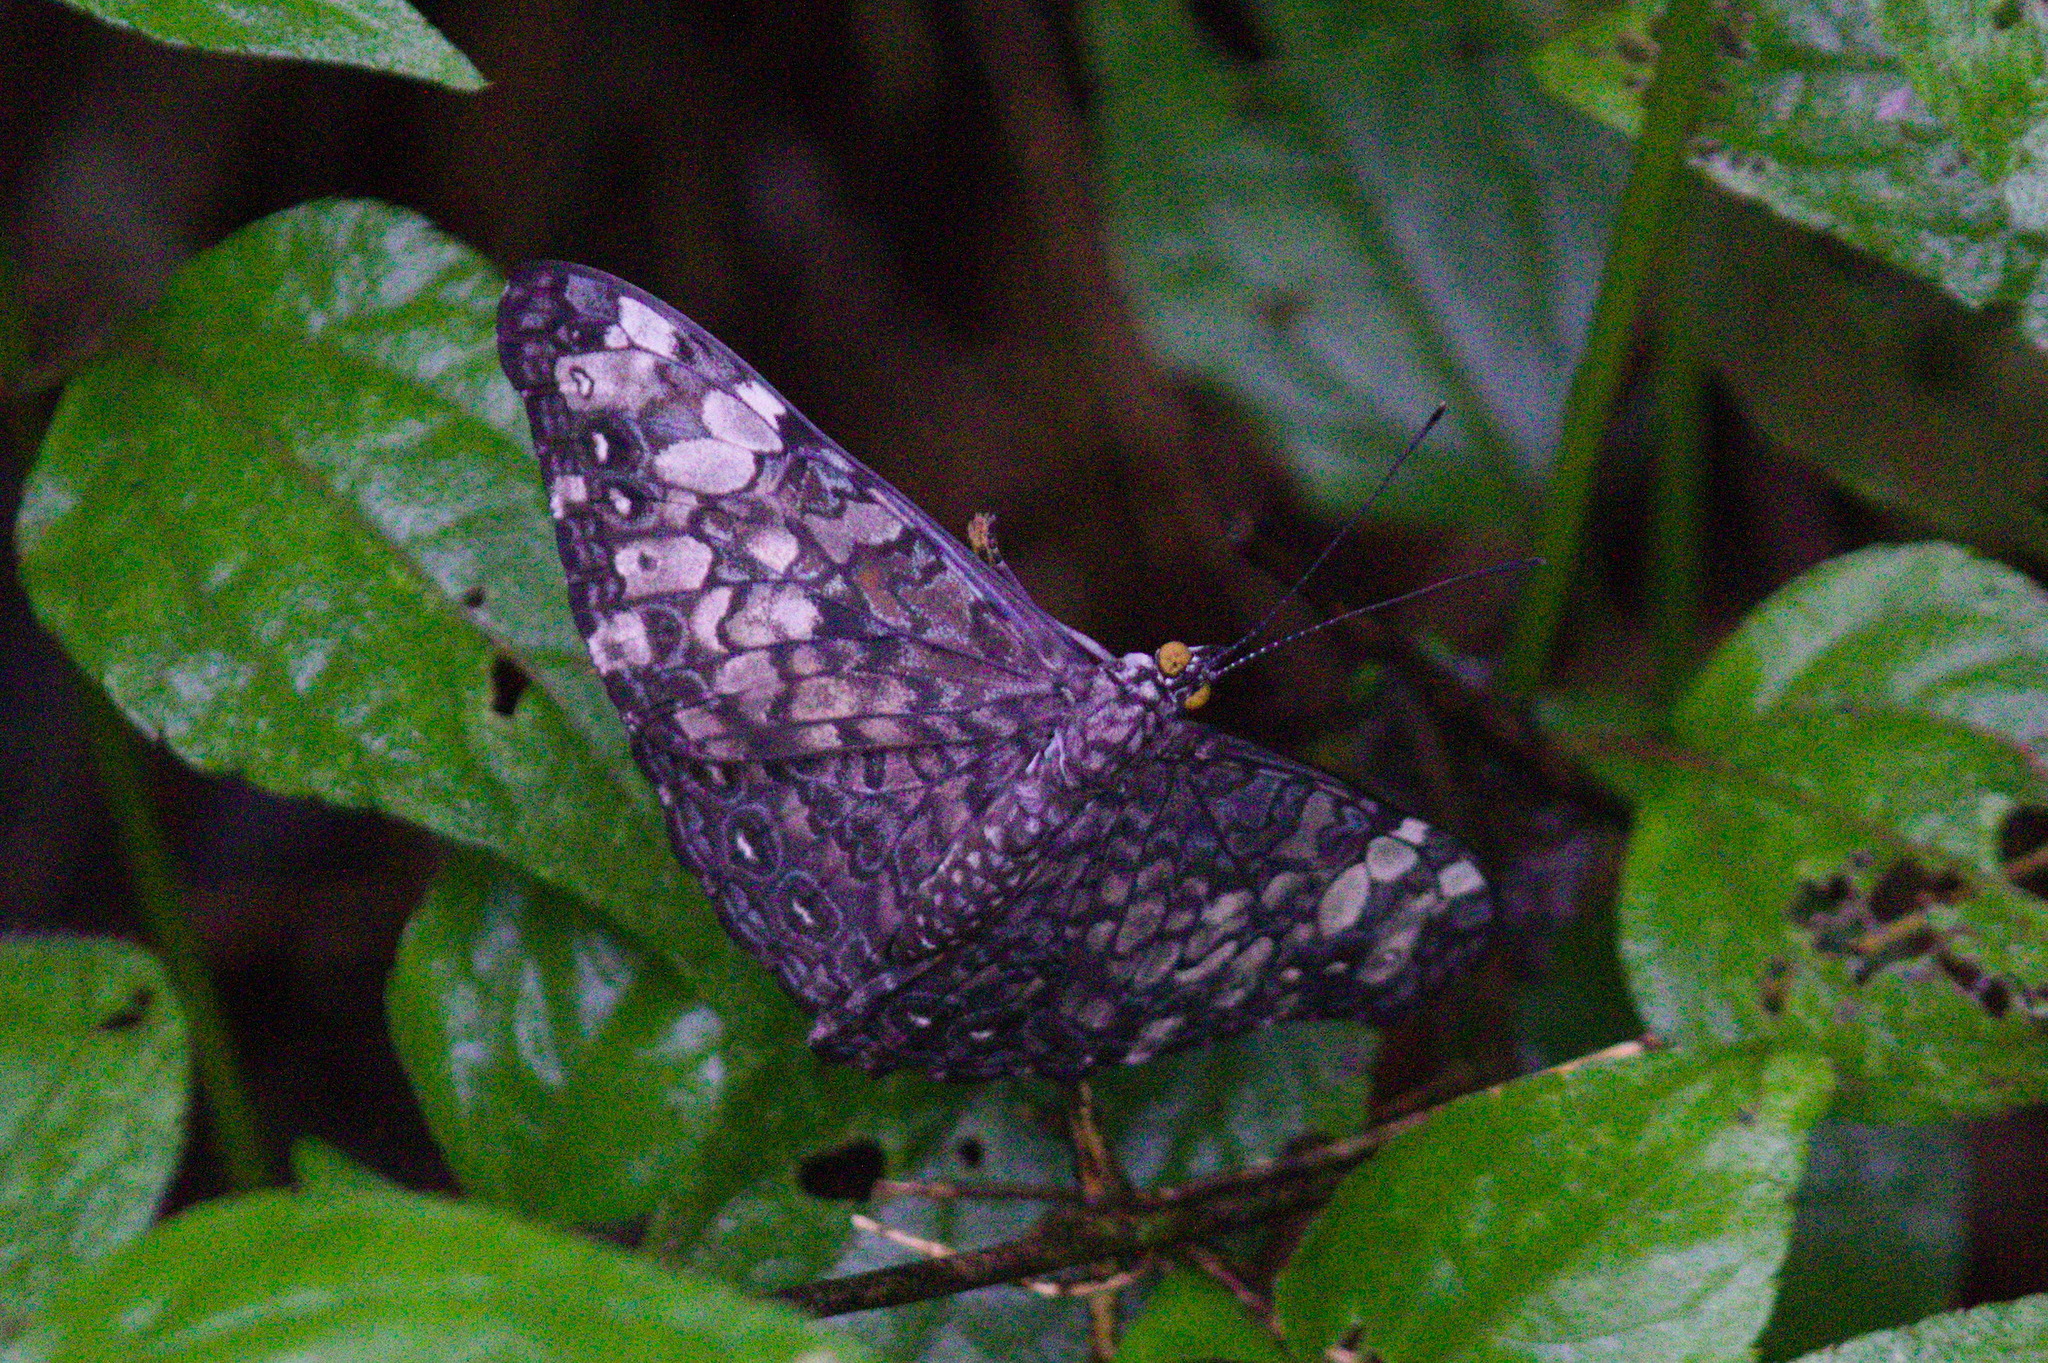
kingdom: Animalia
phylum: Arthropoda
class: Insecta
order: Lepidoptera
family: Nymphalidae
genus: Hamadryas
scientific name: Hamadryas epinome
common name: Epinome cracker
